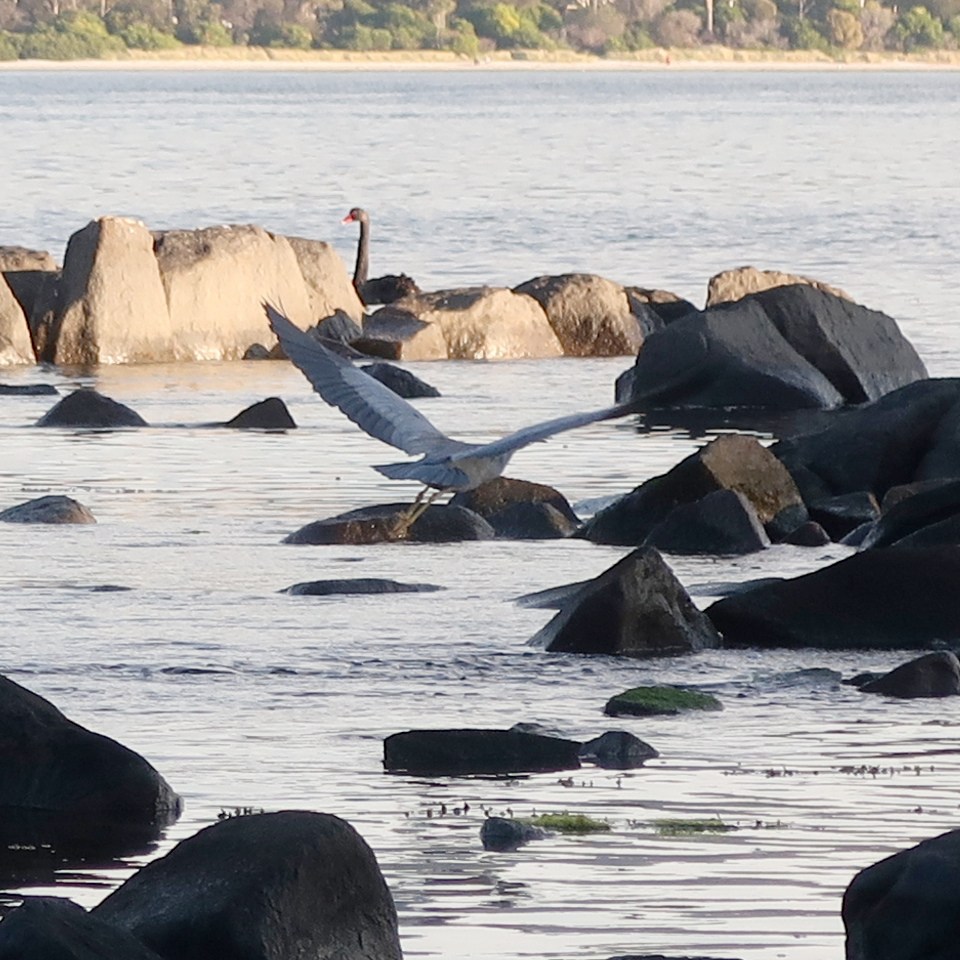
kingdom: Animalia
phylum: Chordata
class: Aves
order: Pelecaniformes
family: Ardeidae
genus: Egretta
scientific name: Egretta novaehollandiae
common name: White-faced heron
